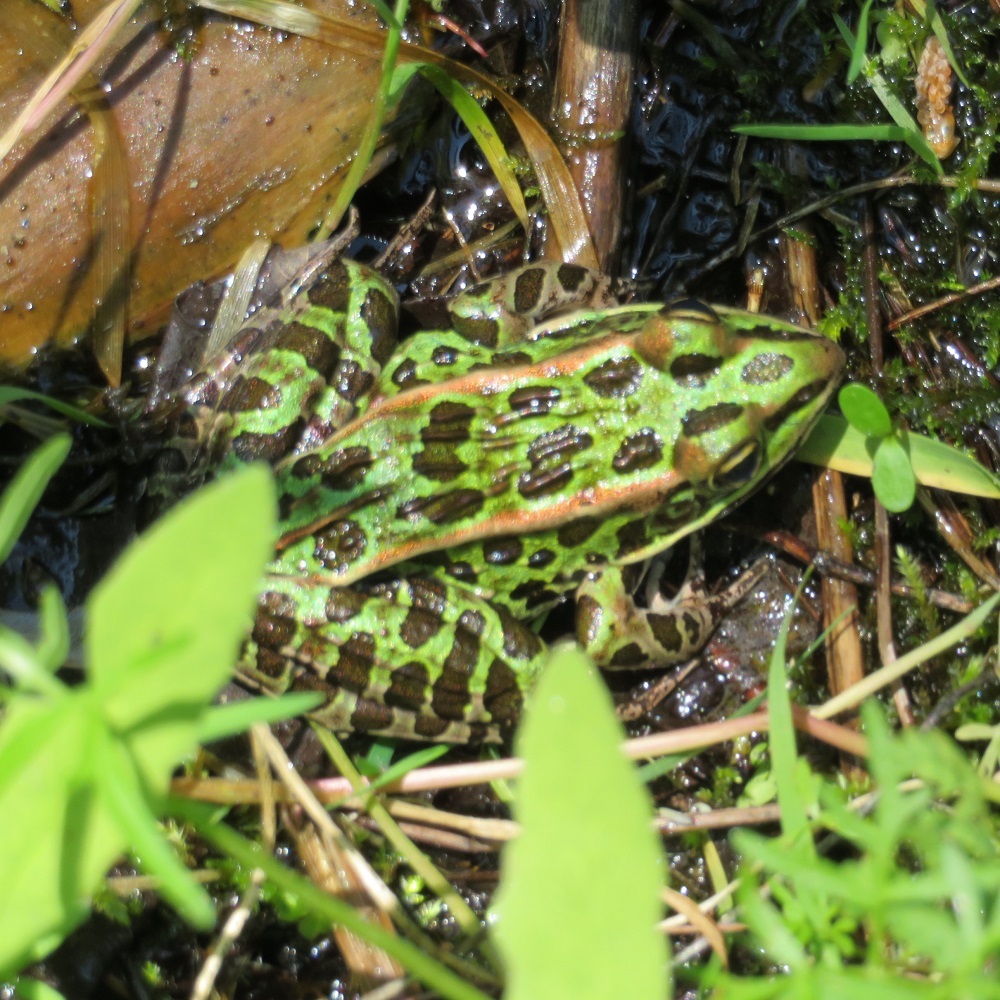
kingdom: Animalia
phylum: Chordata
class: Amphibia
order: Anura
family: Ranidae
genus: Lithobates
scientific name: Lithobates pipiens
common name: Northern leopard frog
